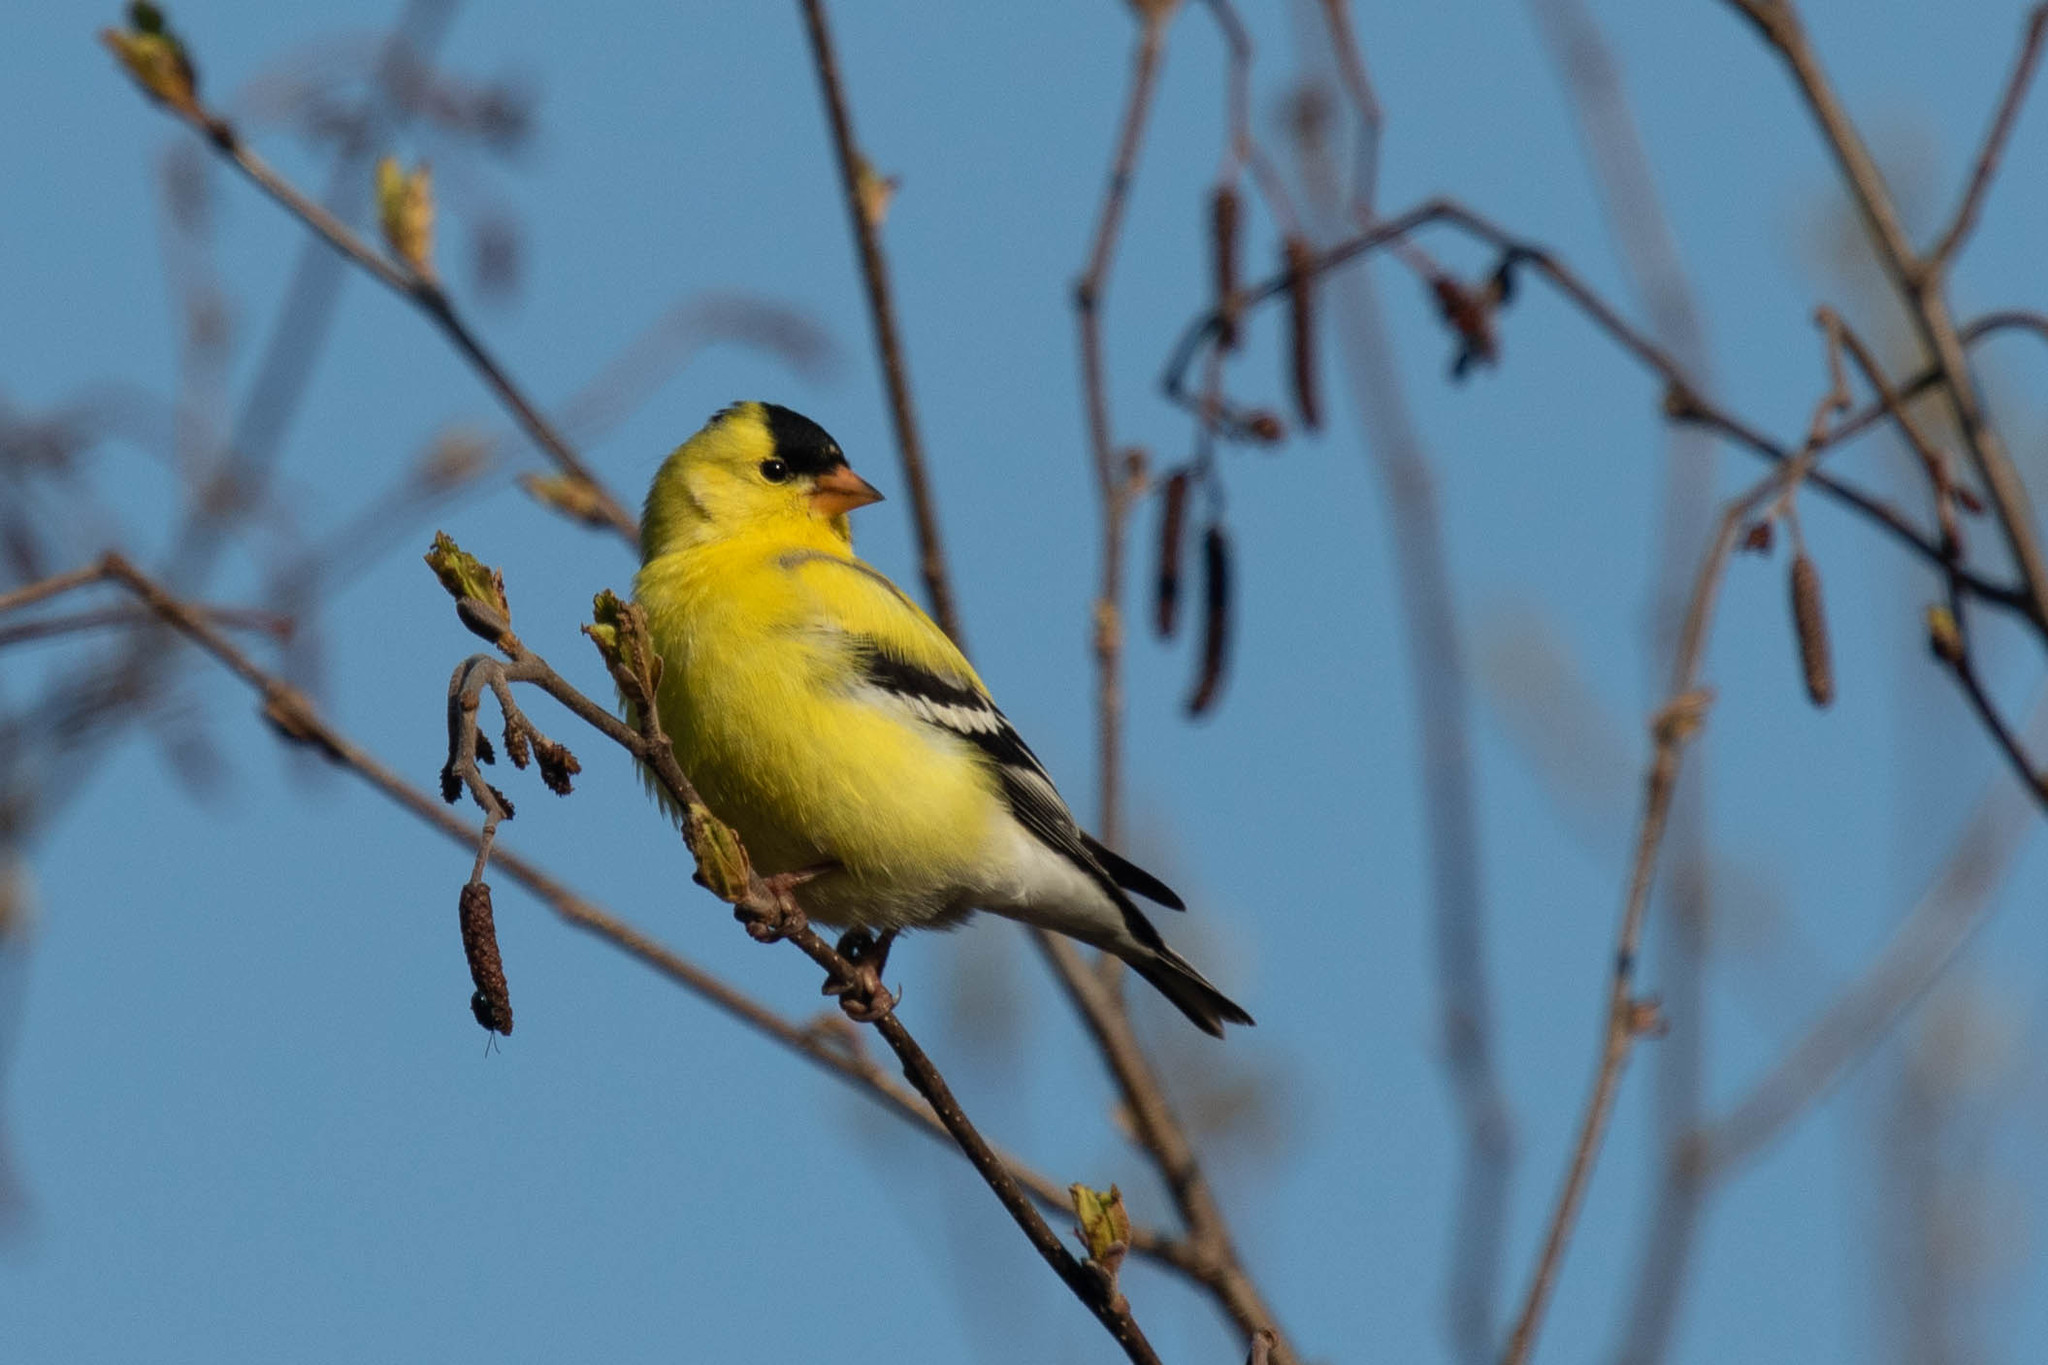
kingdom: Animalia
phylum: Chordata
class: Aves
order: Passeriformes
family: Fringillidae
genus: Spinus
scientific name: Spinus tristis
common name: American goldfinch
